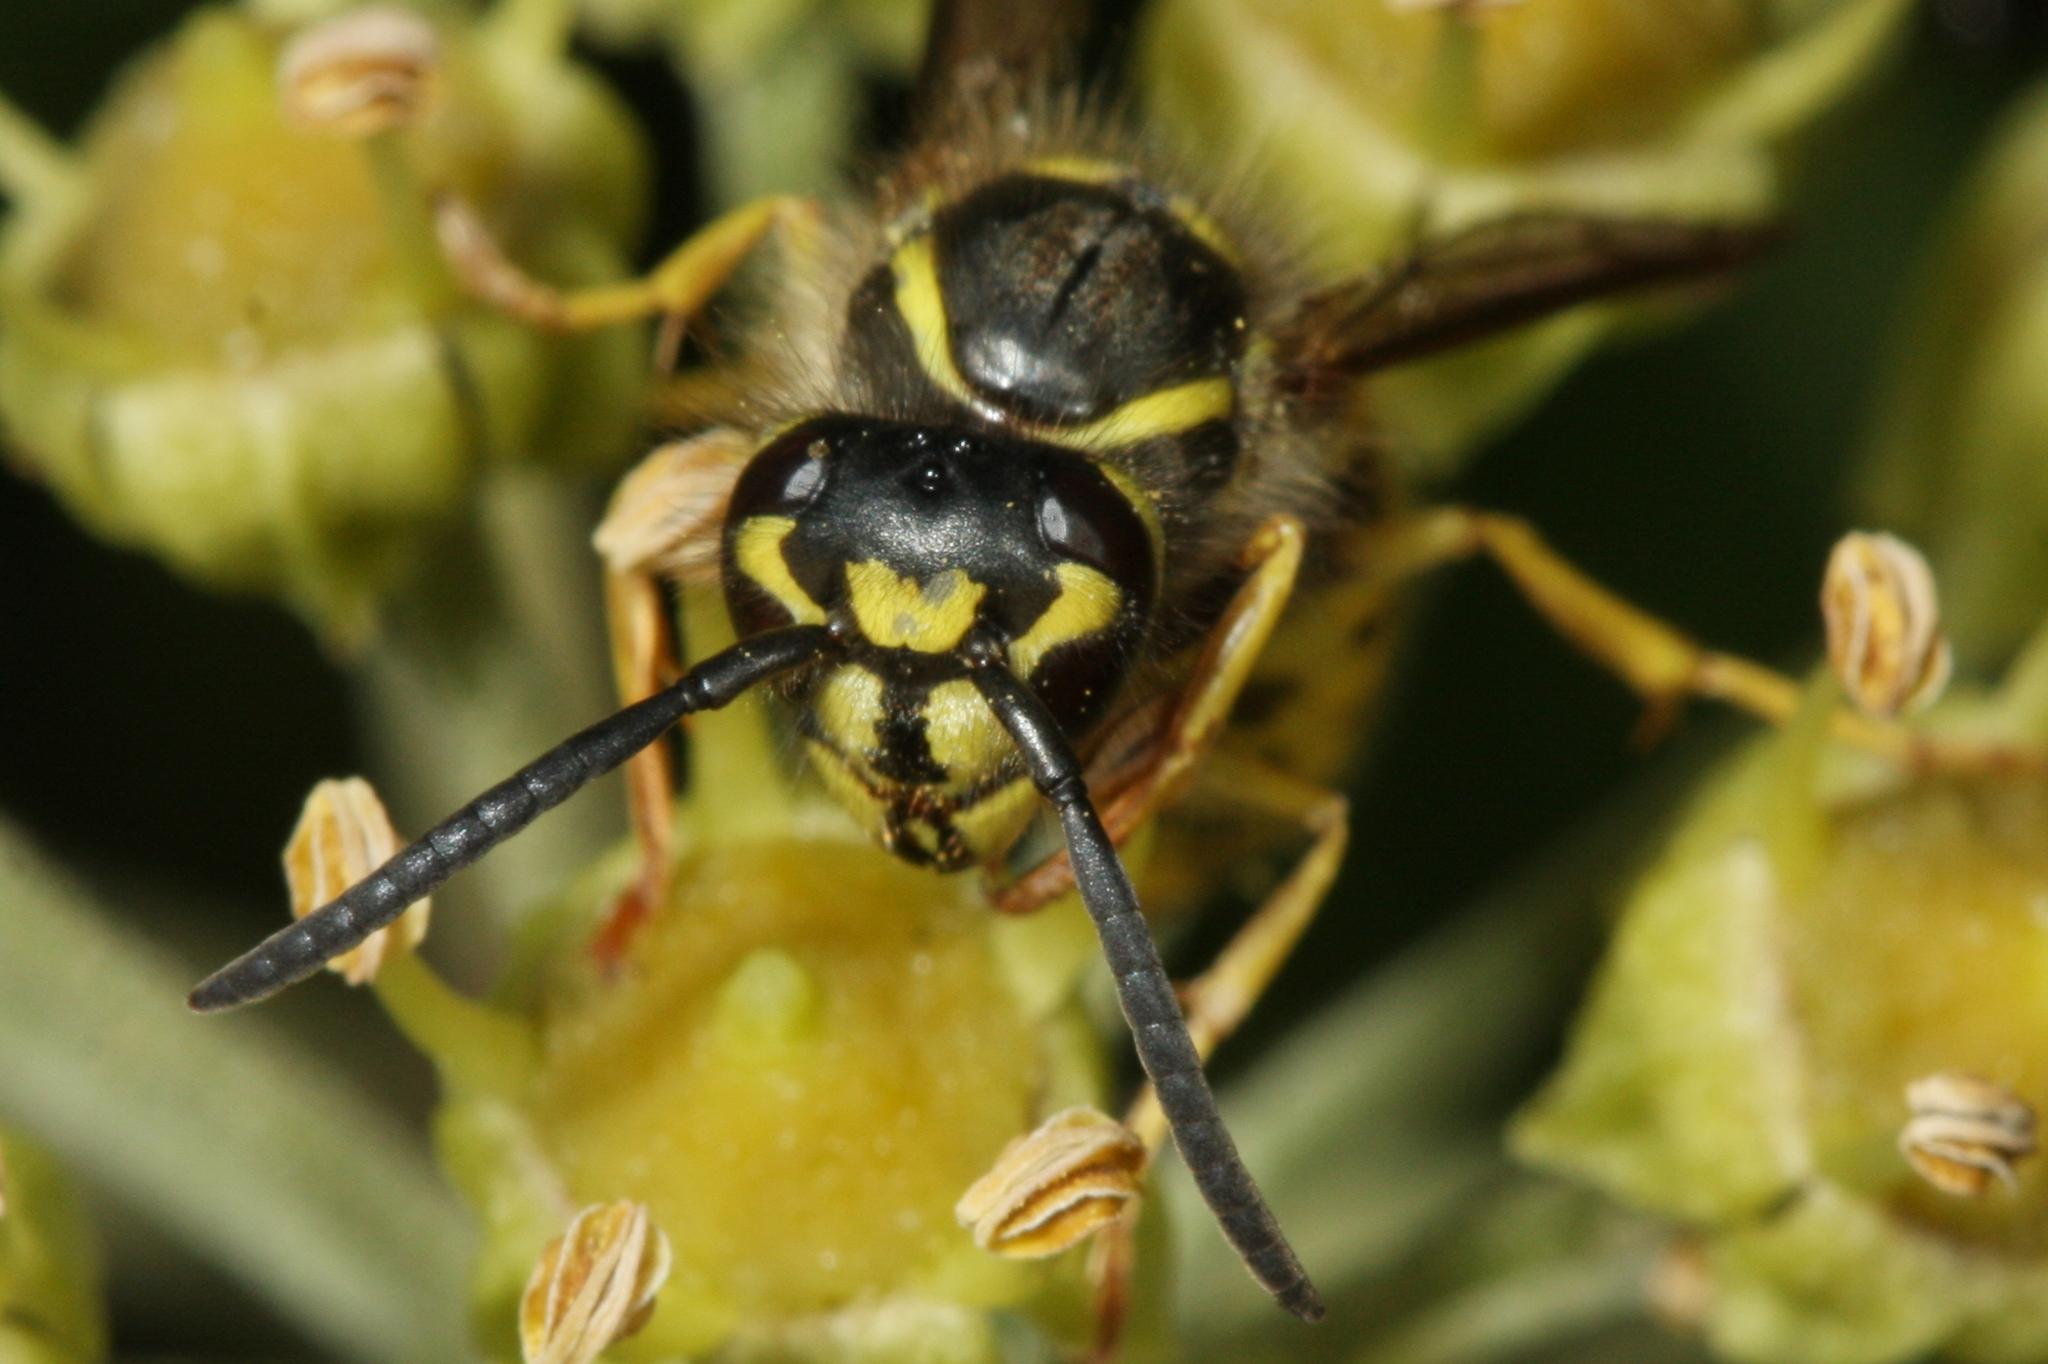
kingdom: Animalia
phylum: Arthropoda
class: Insecta
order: Hymenoptera
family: Vespidae
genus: Vespula
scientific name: Vespula vulgaris
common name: Common wasp
